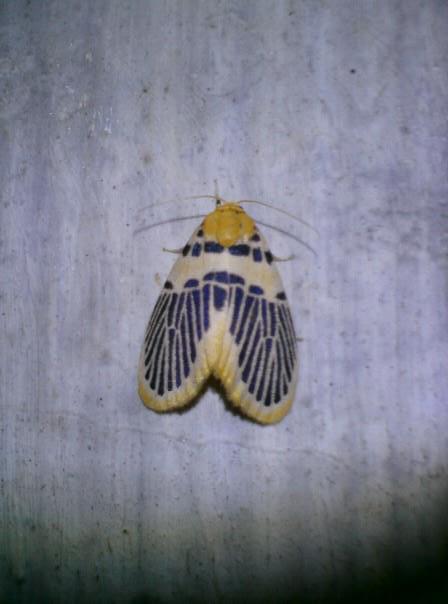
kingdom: Animalia
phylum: Arthropoda
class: Insecta
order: Lepidoptera
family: Erebidae
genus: Stigmatophora
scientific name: Stigmatophora palmata
